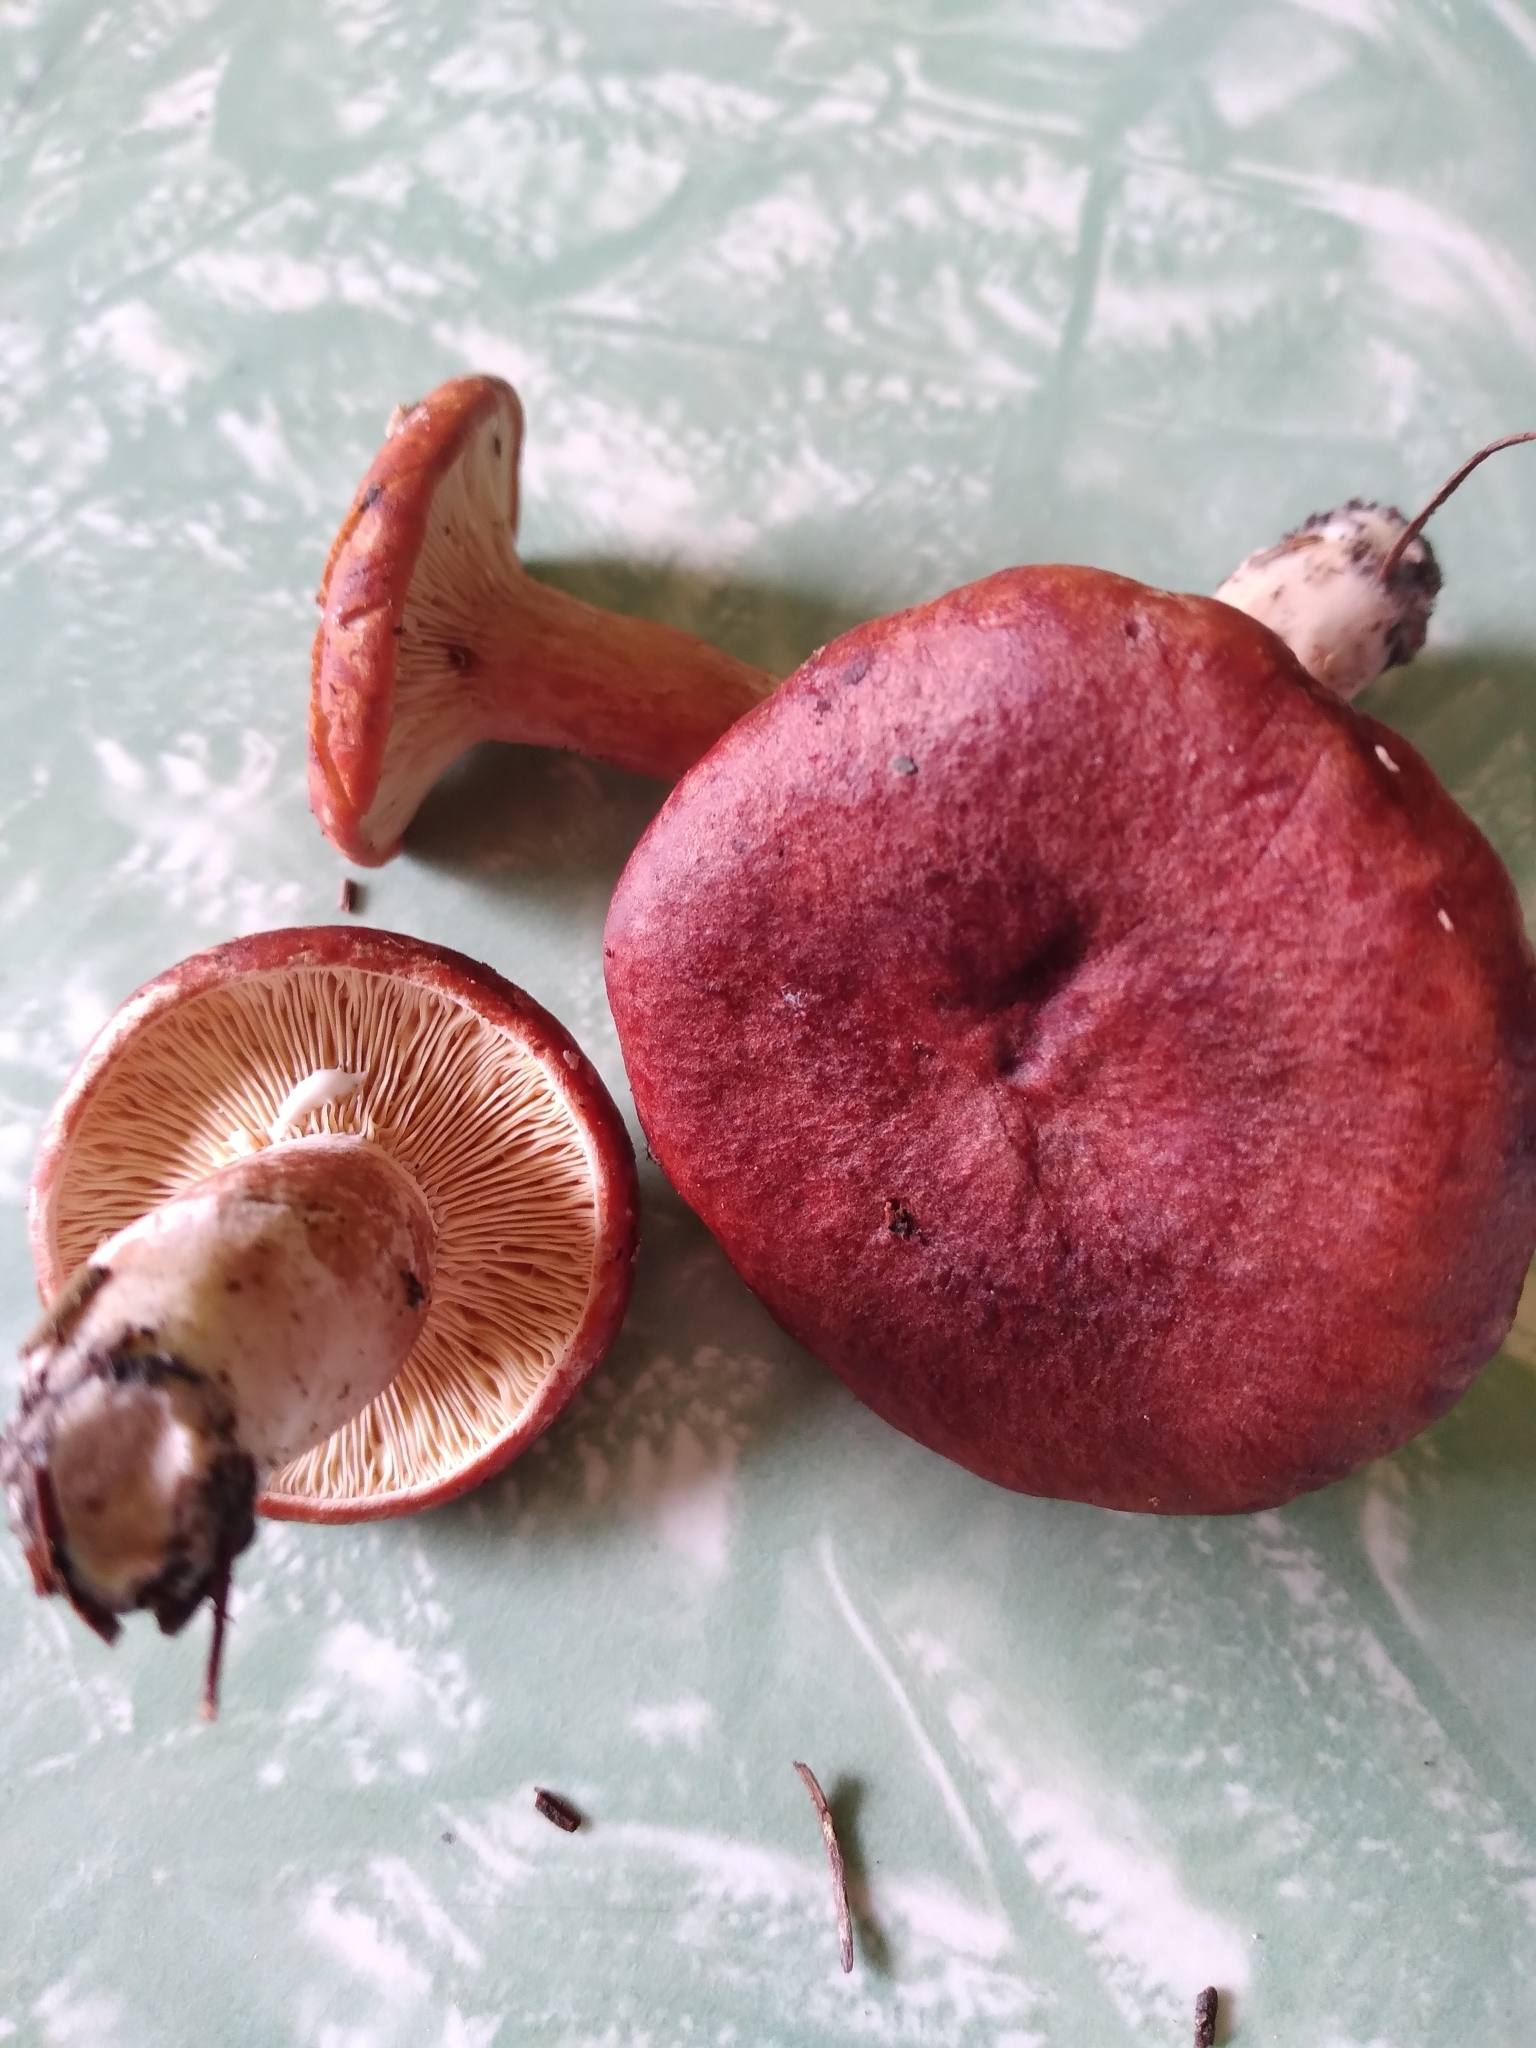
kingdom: Fungi
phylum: Basidiomycota
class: Agaricomycetes
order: Russulales
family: Russulaceae
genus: Lactarius
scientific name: Lactarius rufus
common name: Rufous milk-cap
